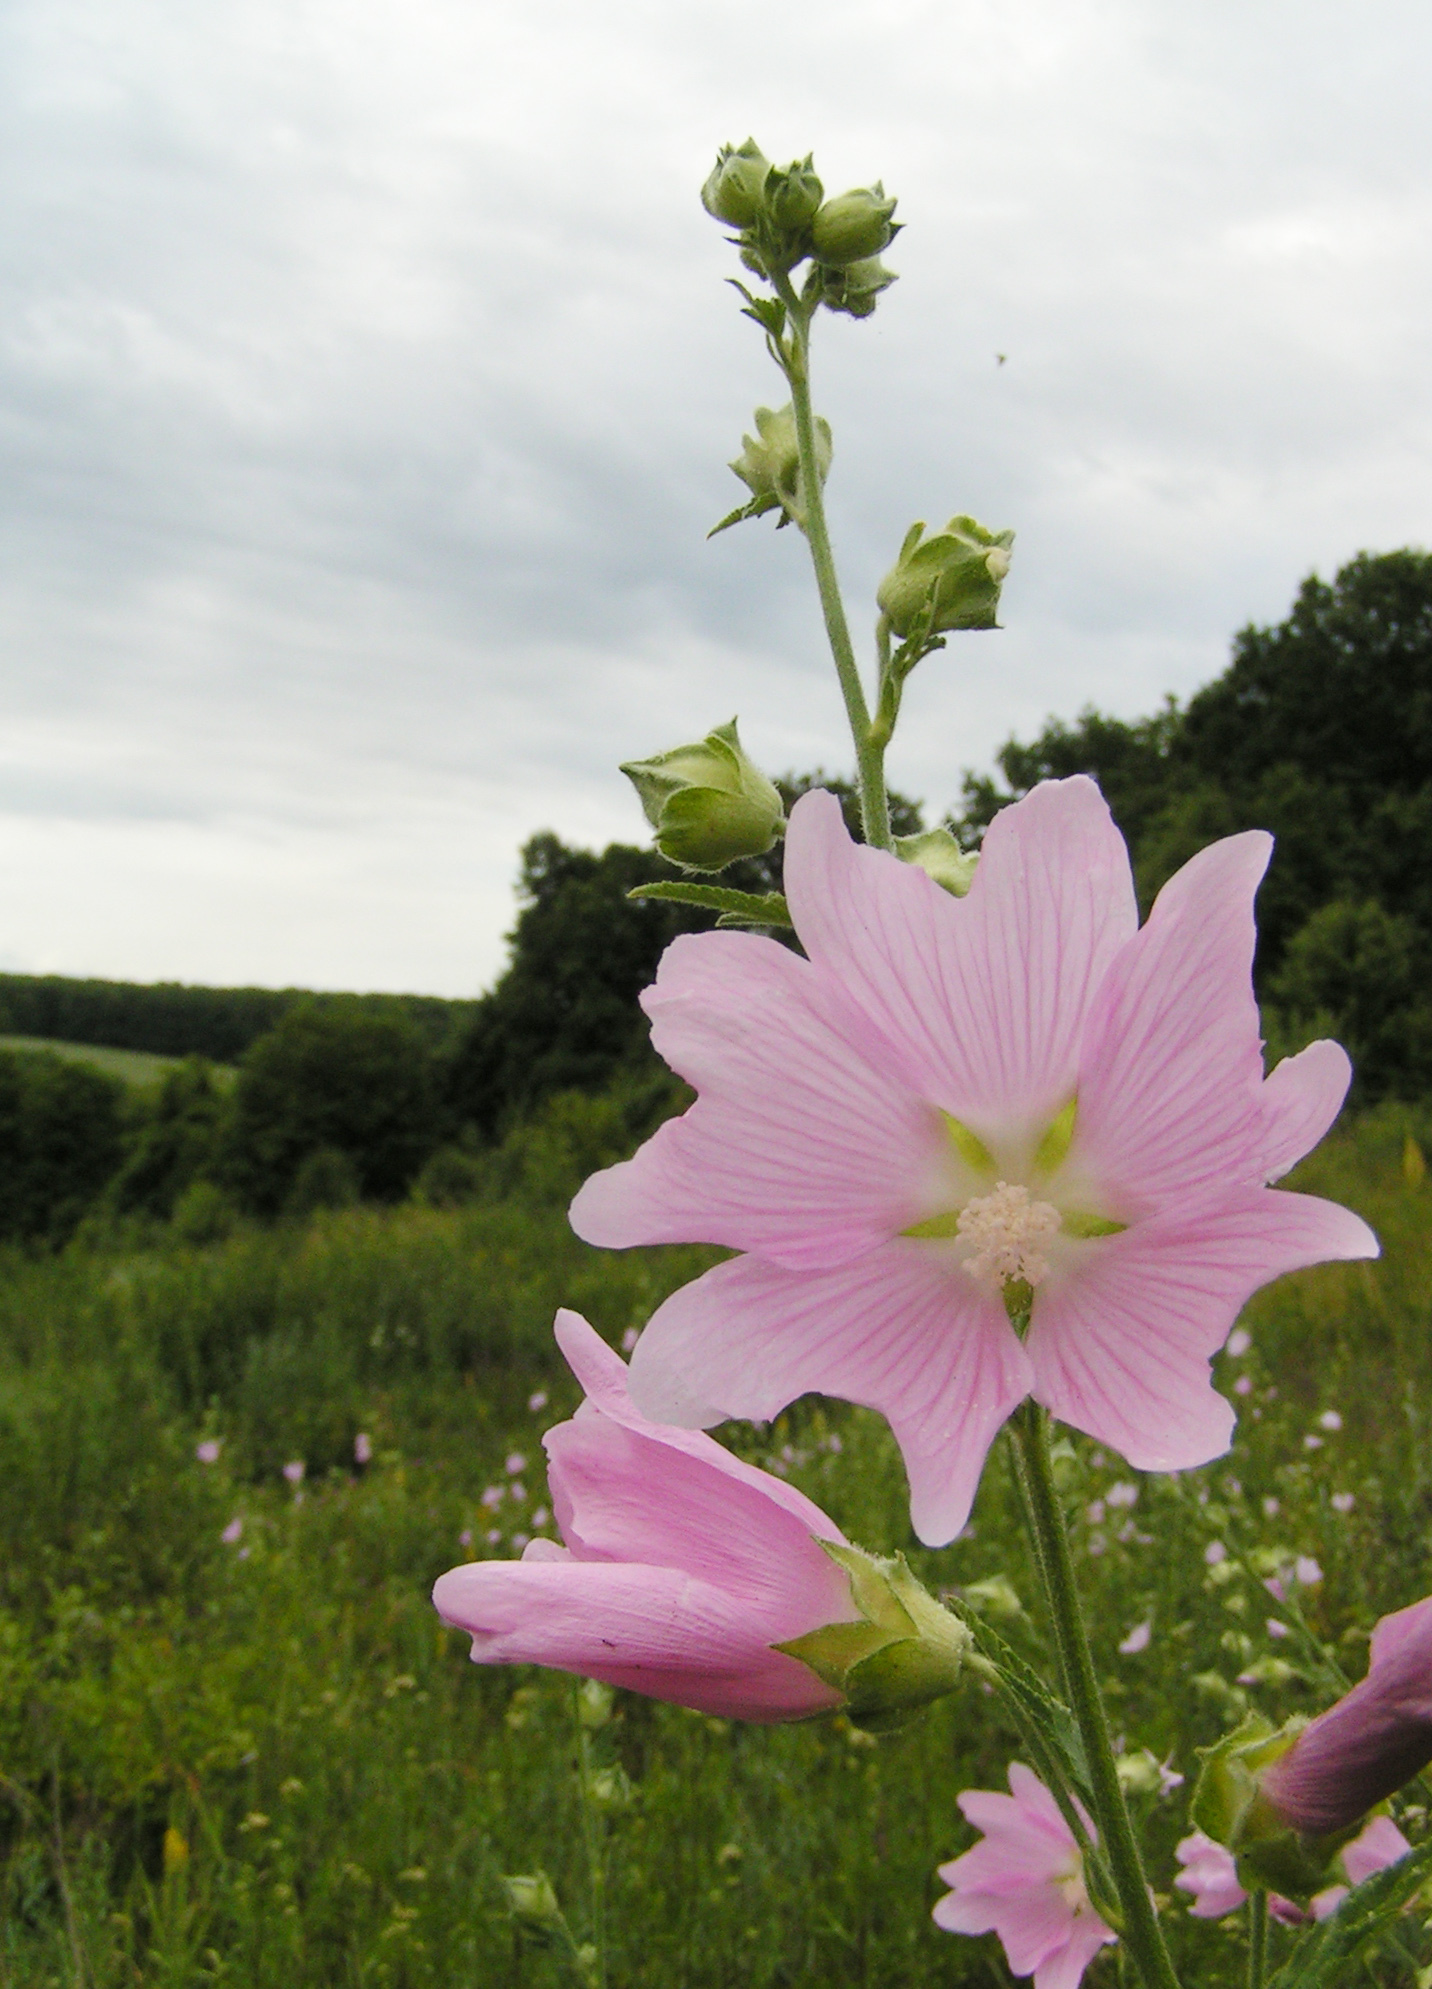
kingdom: Plantae
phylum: Tracheophyta
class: Magnoliopsida
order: Malvales
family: Malvaceae
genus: Malva
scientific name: Malva thuringiaca
